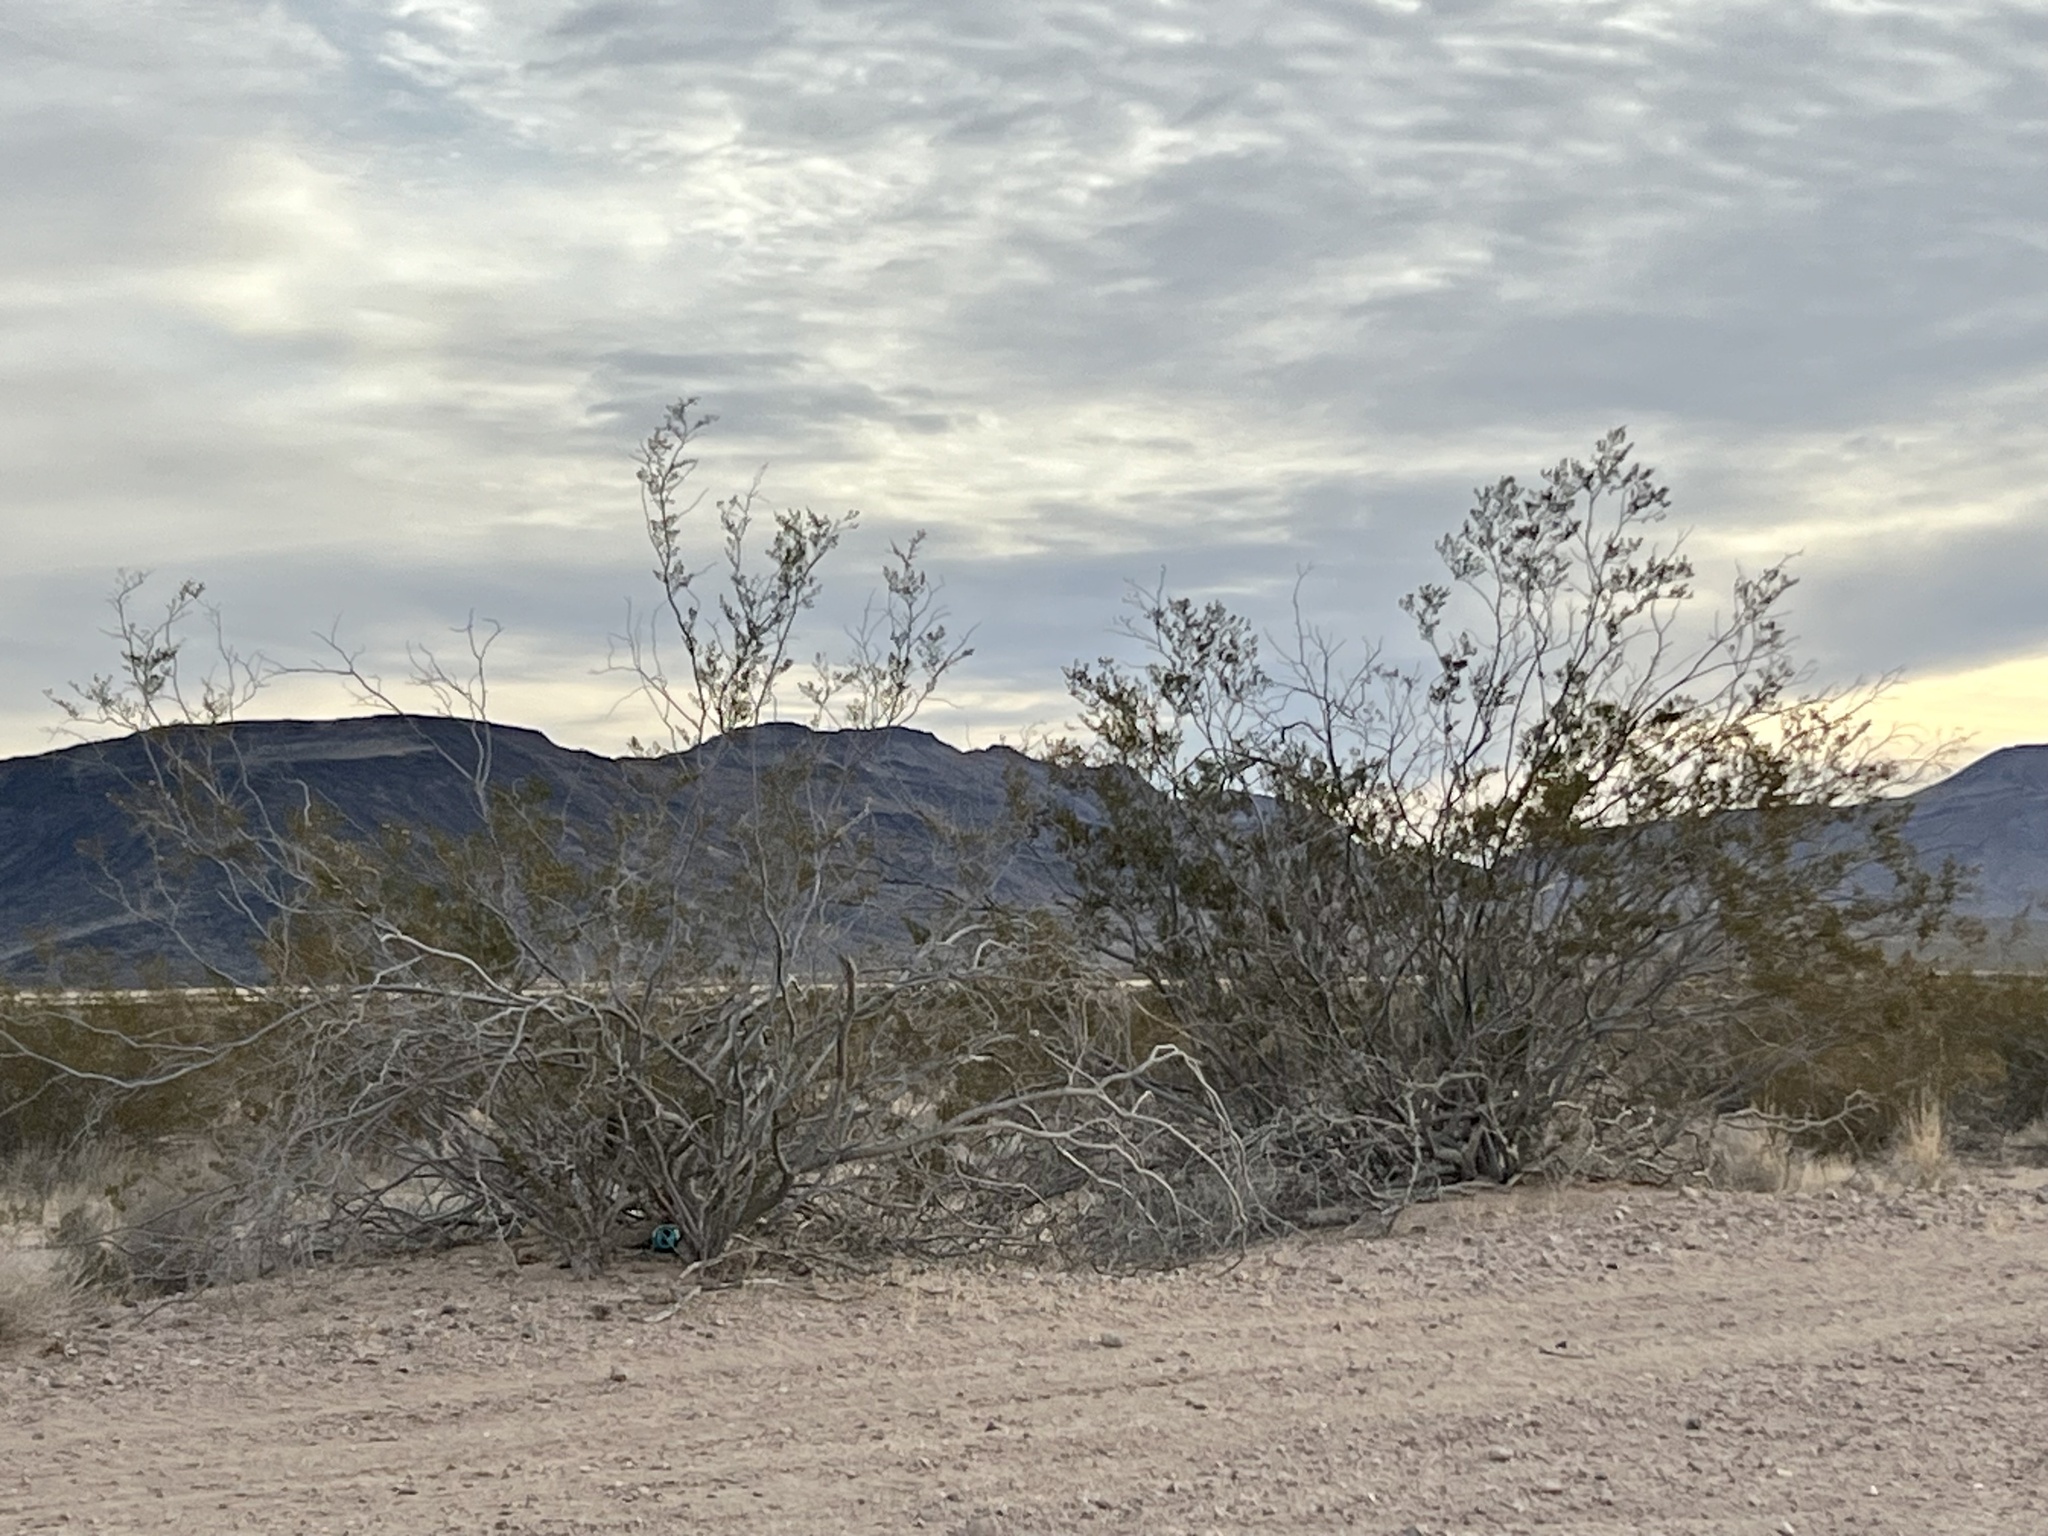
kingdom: Plantae
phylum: Tracheophyta
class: Magnoliopsida
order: Zygophyllales
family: Zygophyllaceae
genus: Larrea
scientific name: Larrea tridentata
